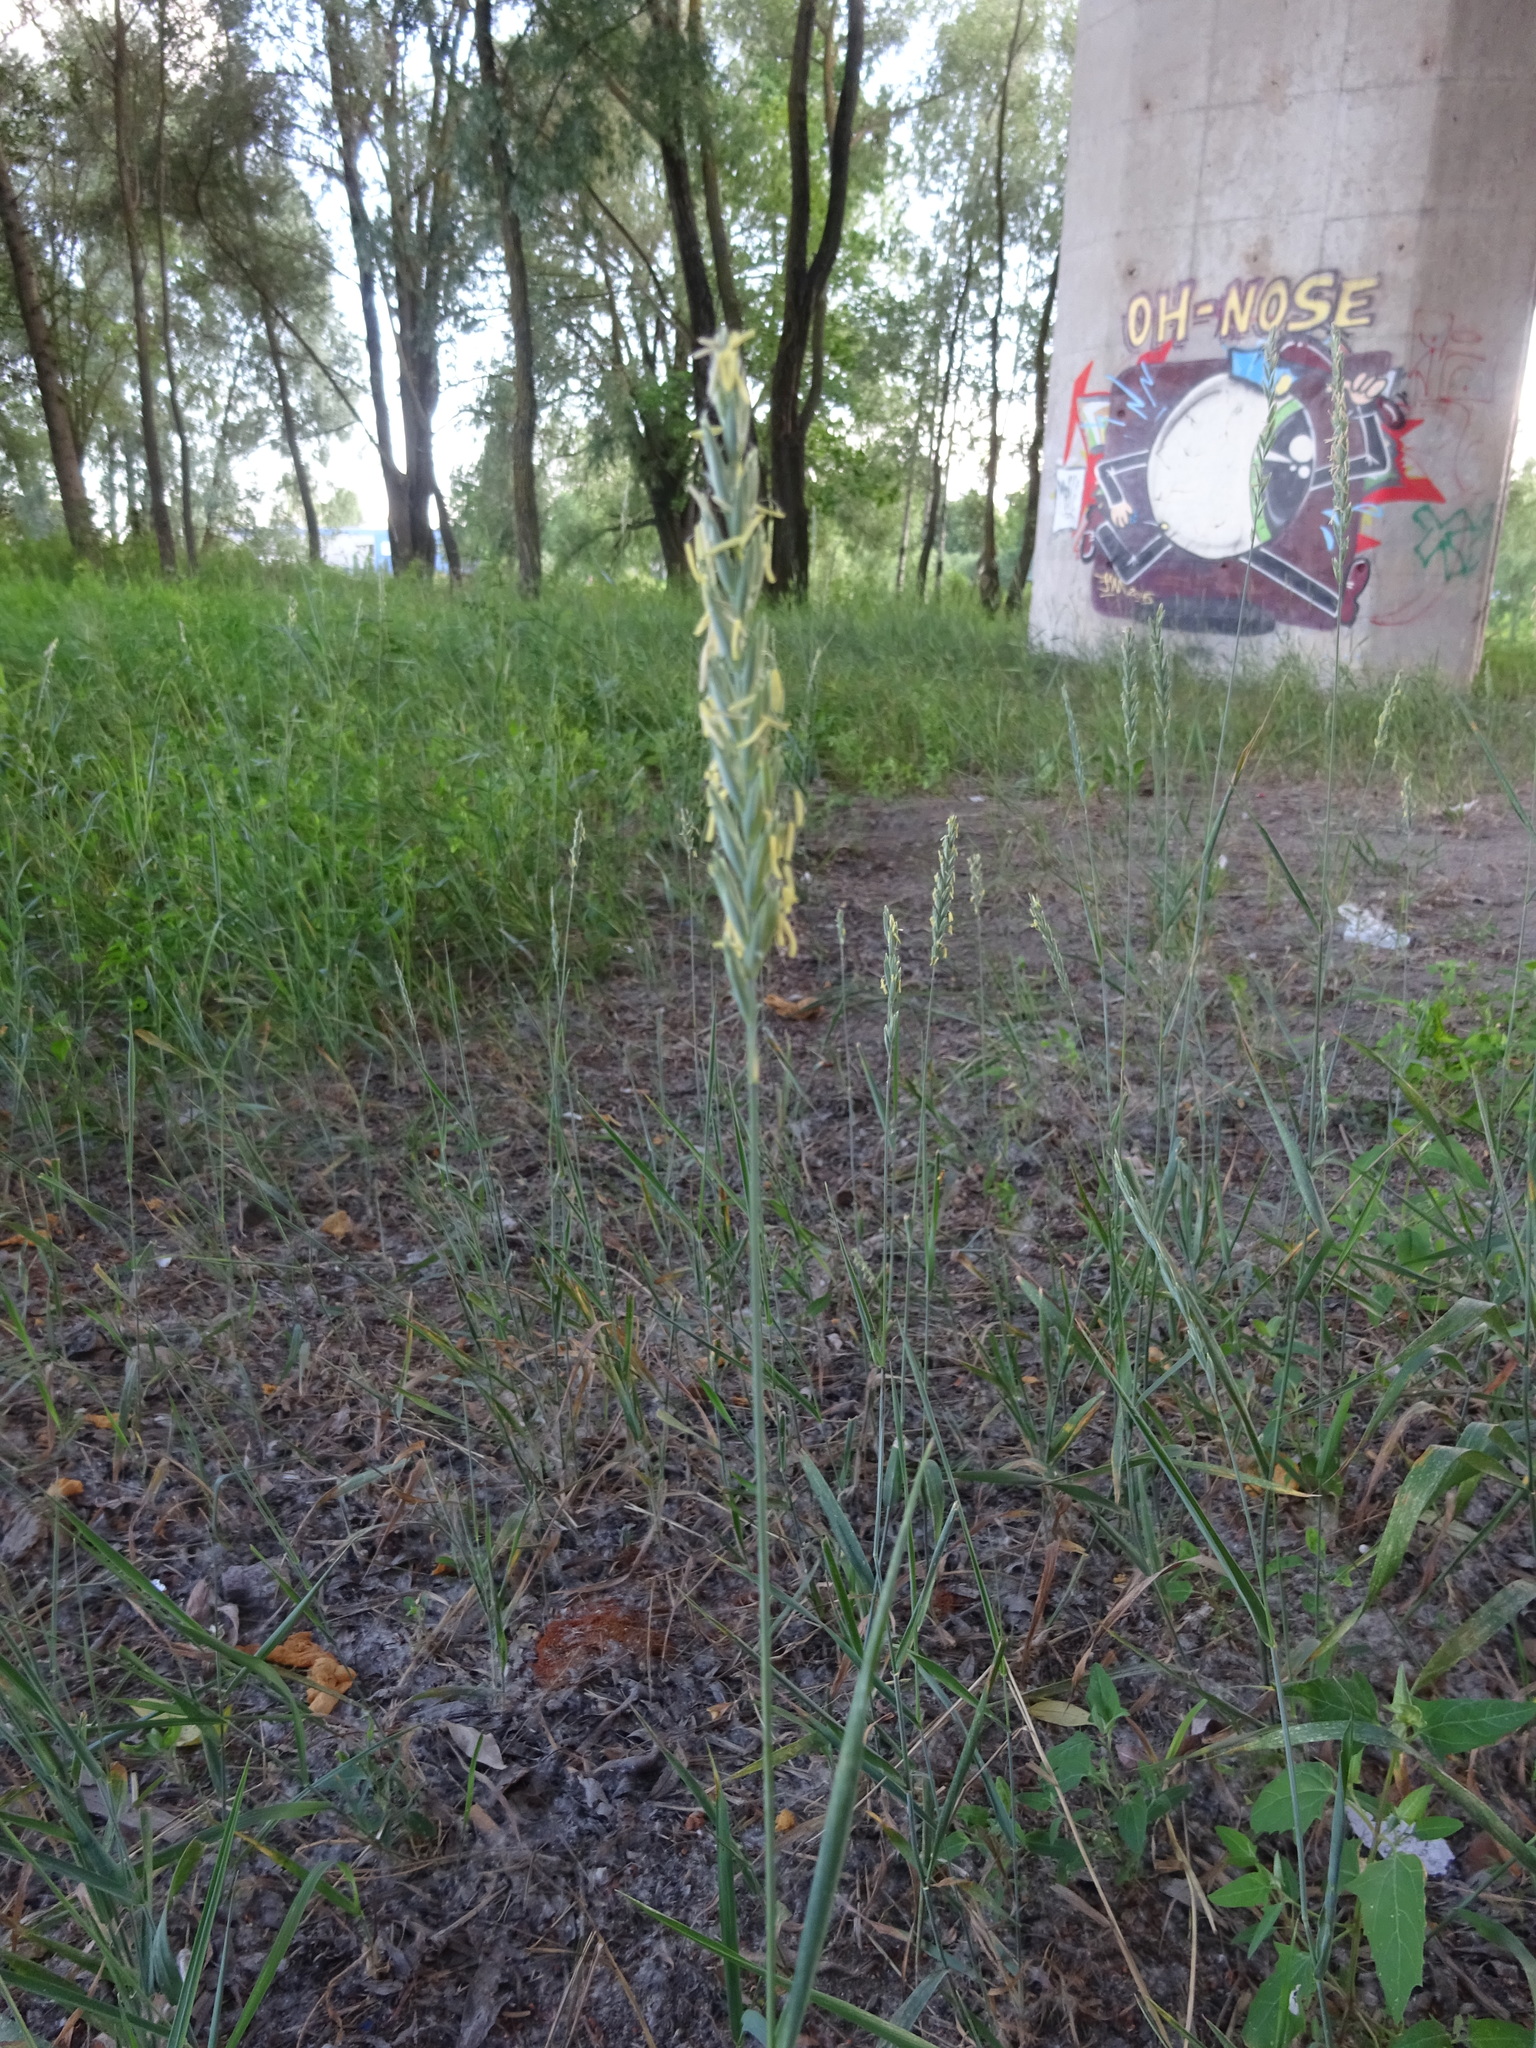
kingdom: Plantae
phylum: Tracheophyta
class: Liliopsida
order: Poales
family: Poaceae
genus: Elymus
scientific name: Elymus repens
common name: Quackgrass
